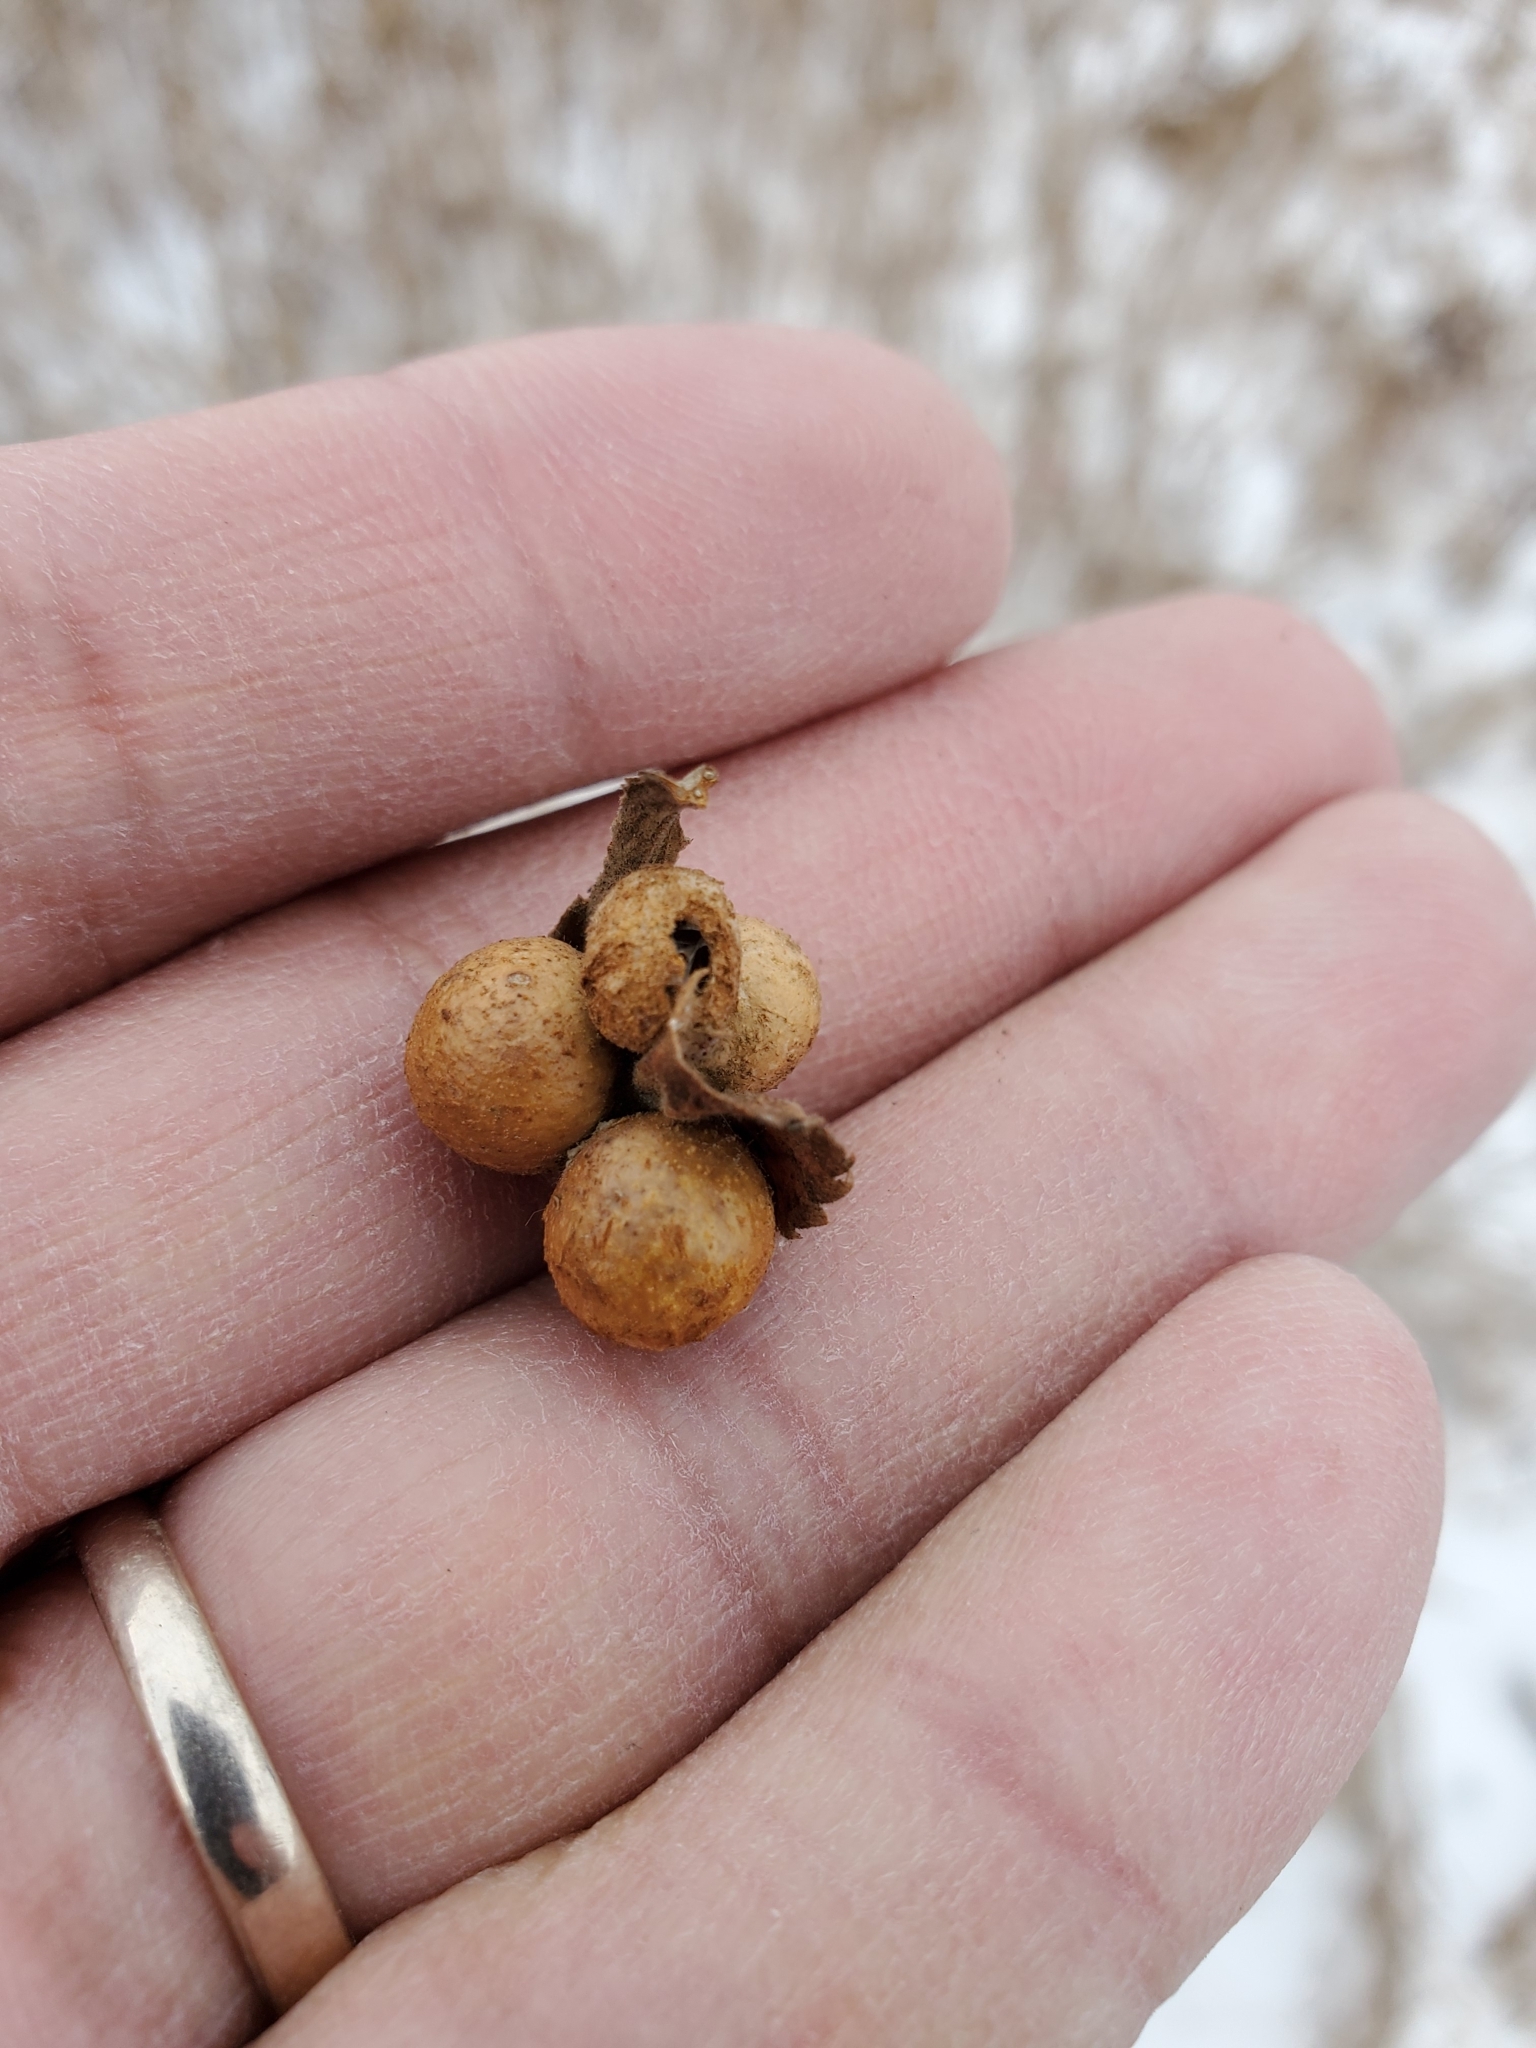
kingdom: Animalia
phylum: Arthropoda
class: Insecta
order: Hymenoptera
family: Cynipidae
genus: Diplolepis
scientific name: Diplolepis ignota
